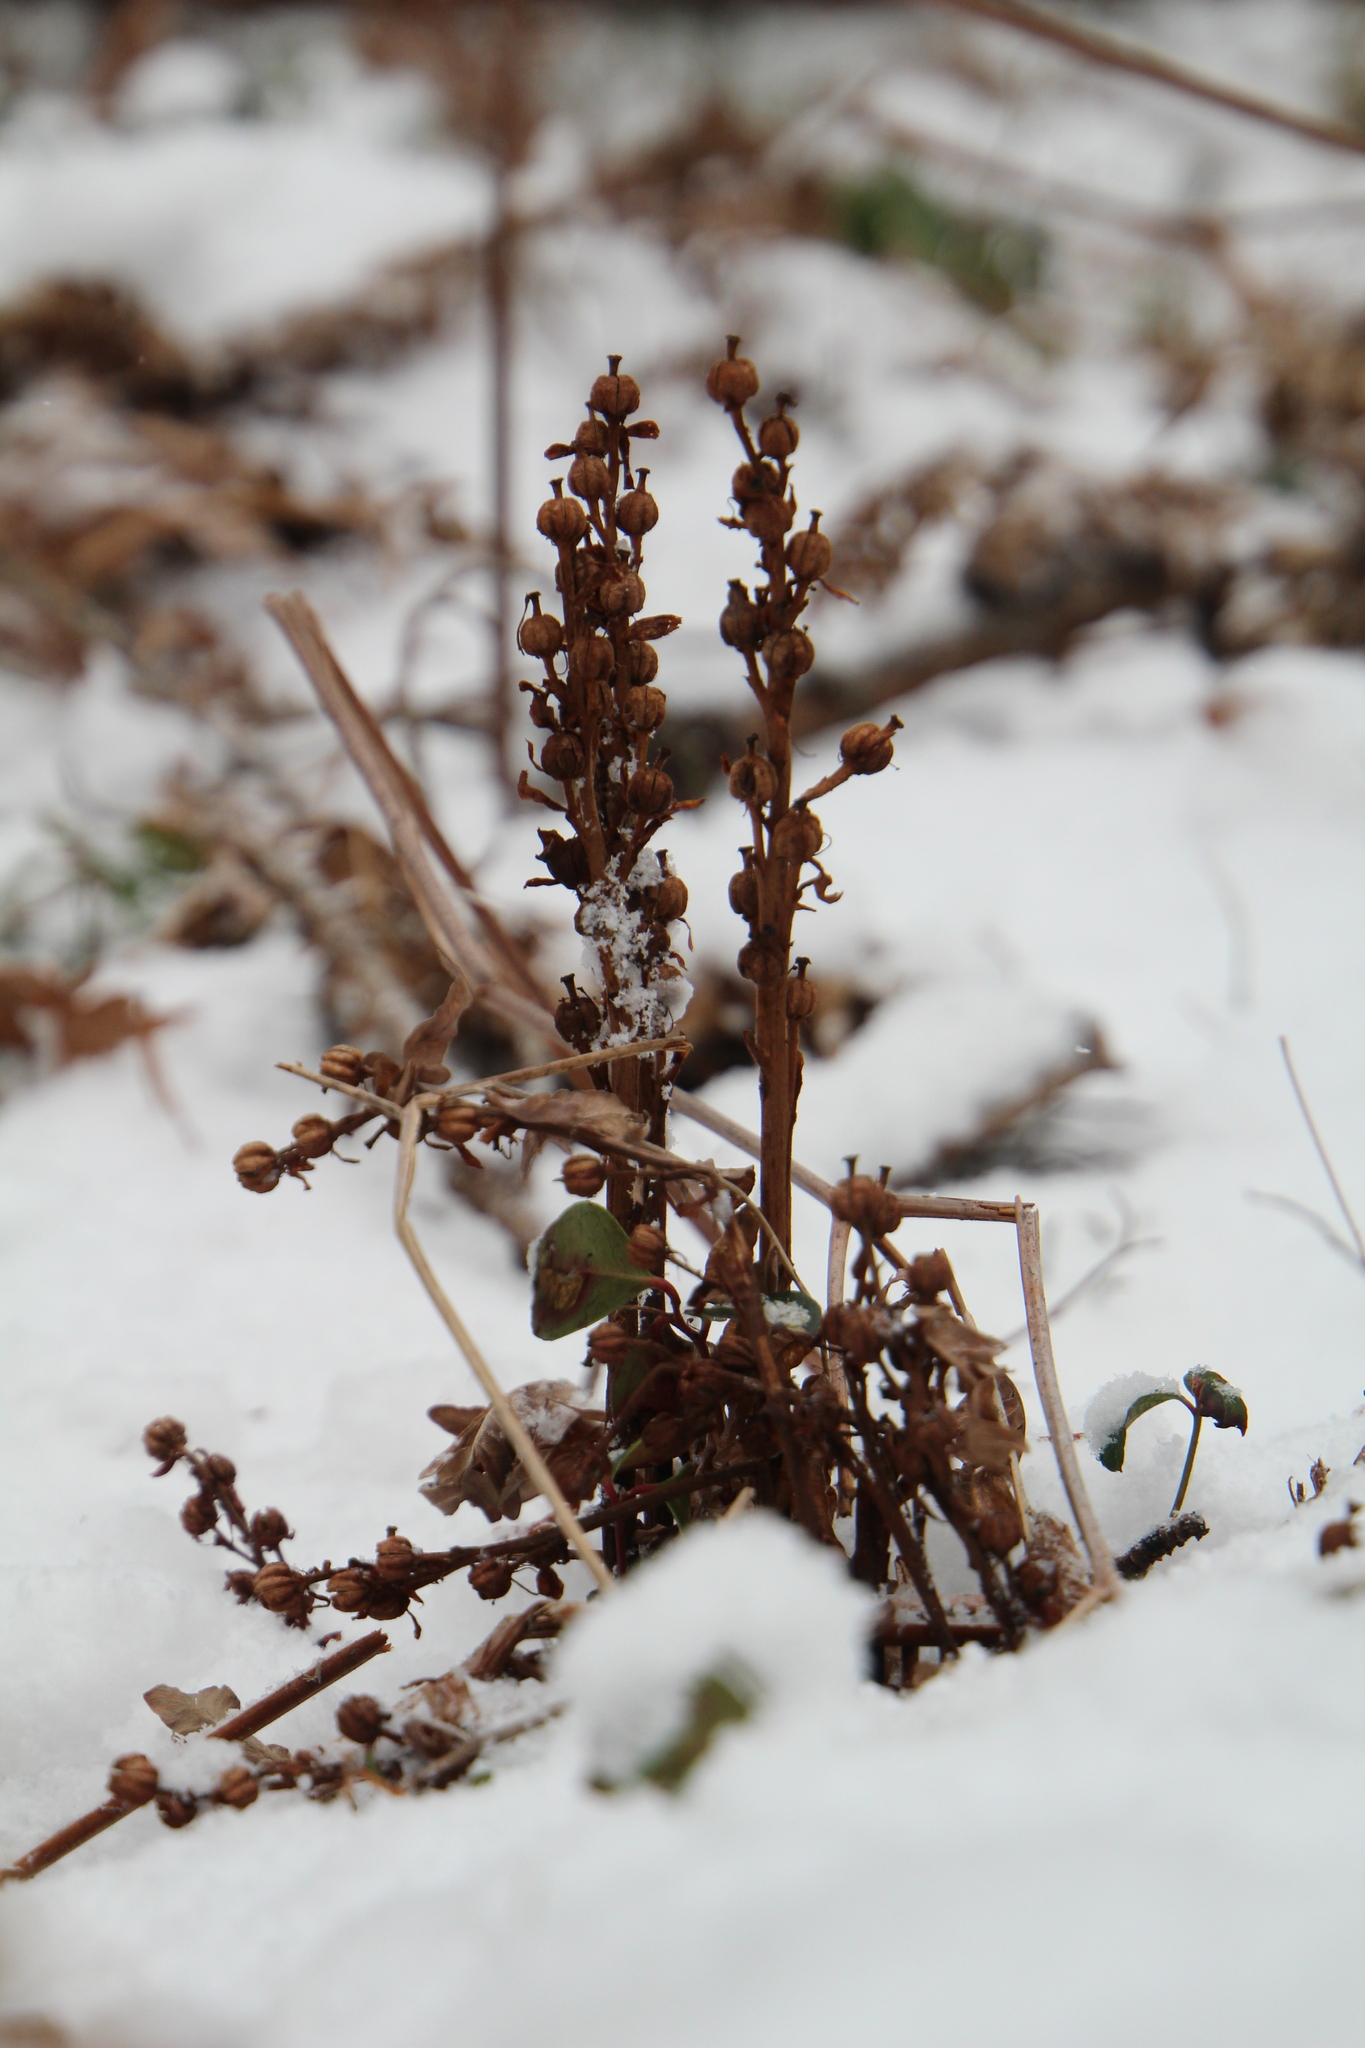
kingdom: Plantae
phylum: Tracheophyta
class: Magnoliopsida
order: Ericales
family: Ericaceae
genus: Hypopitys
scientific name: Hypopitys monotropa
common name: Yellow bird's-nest
